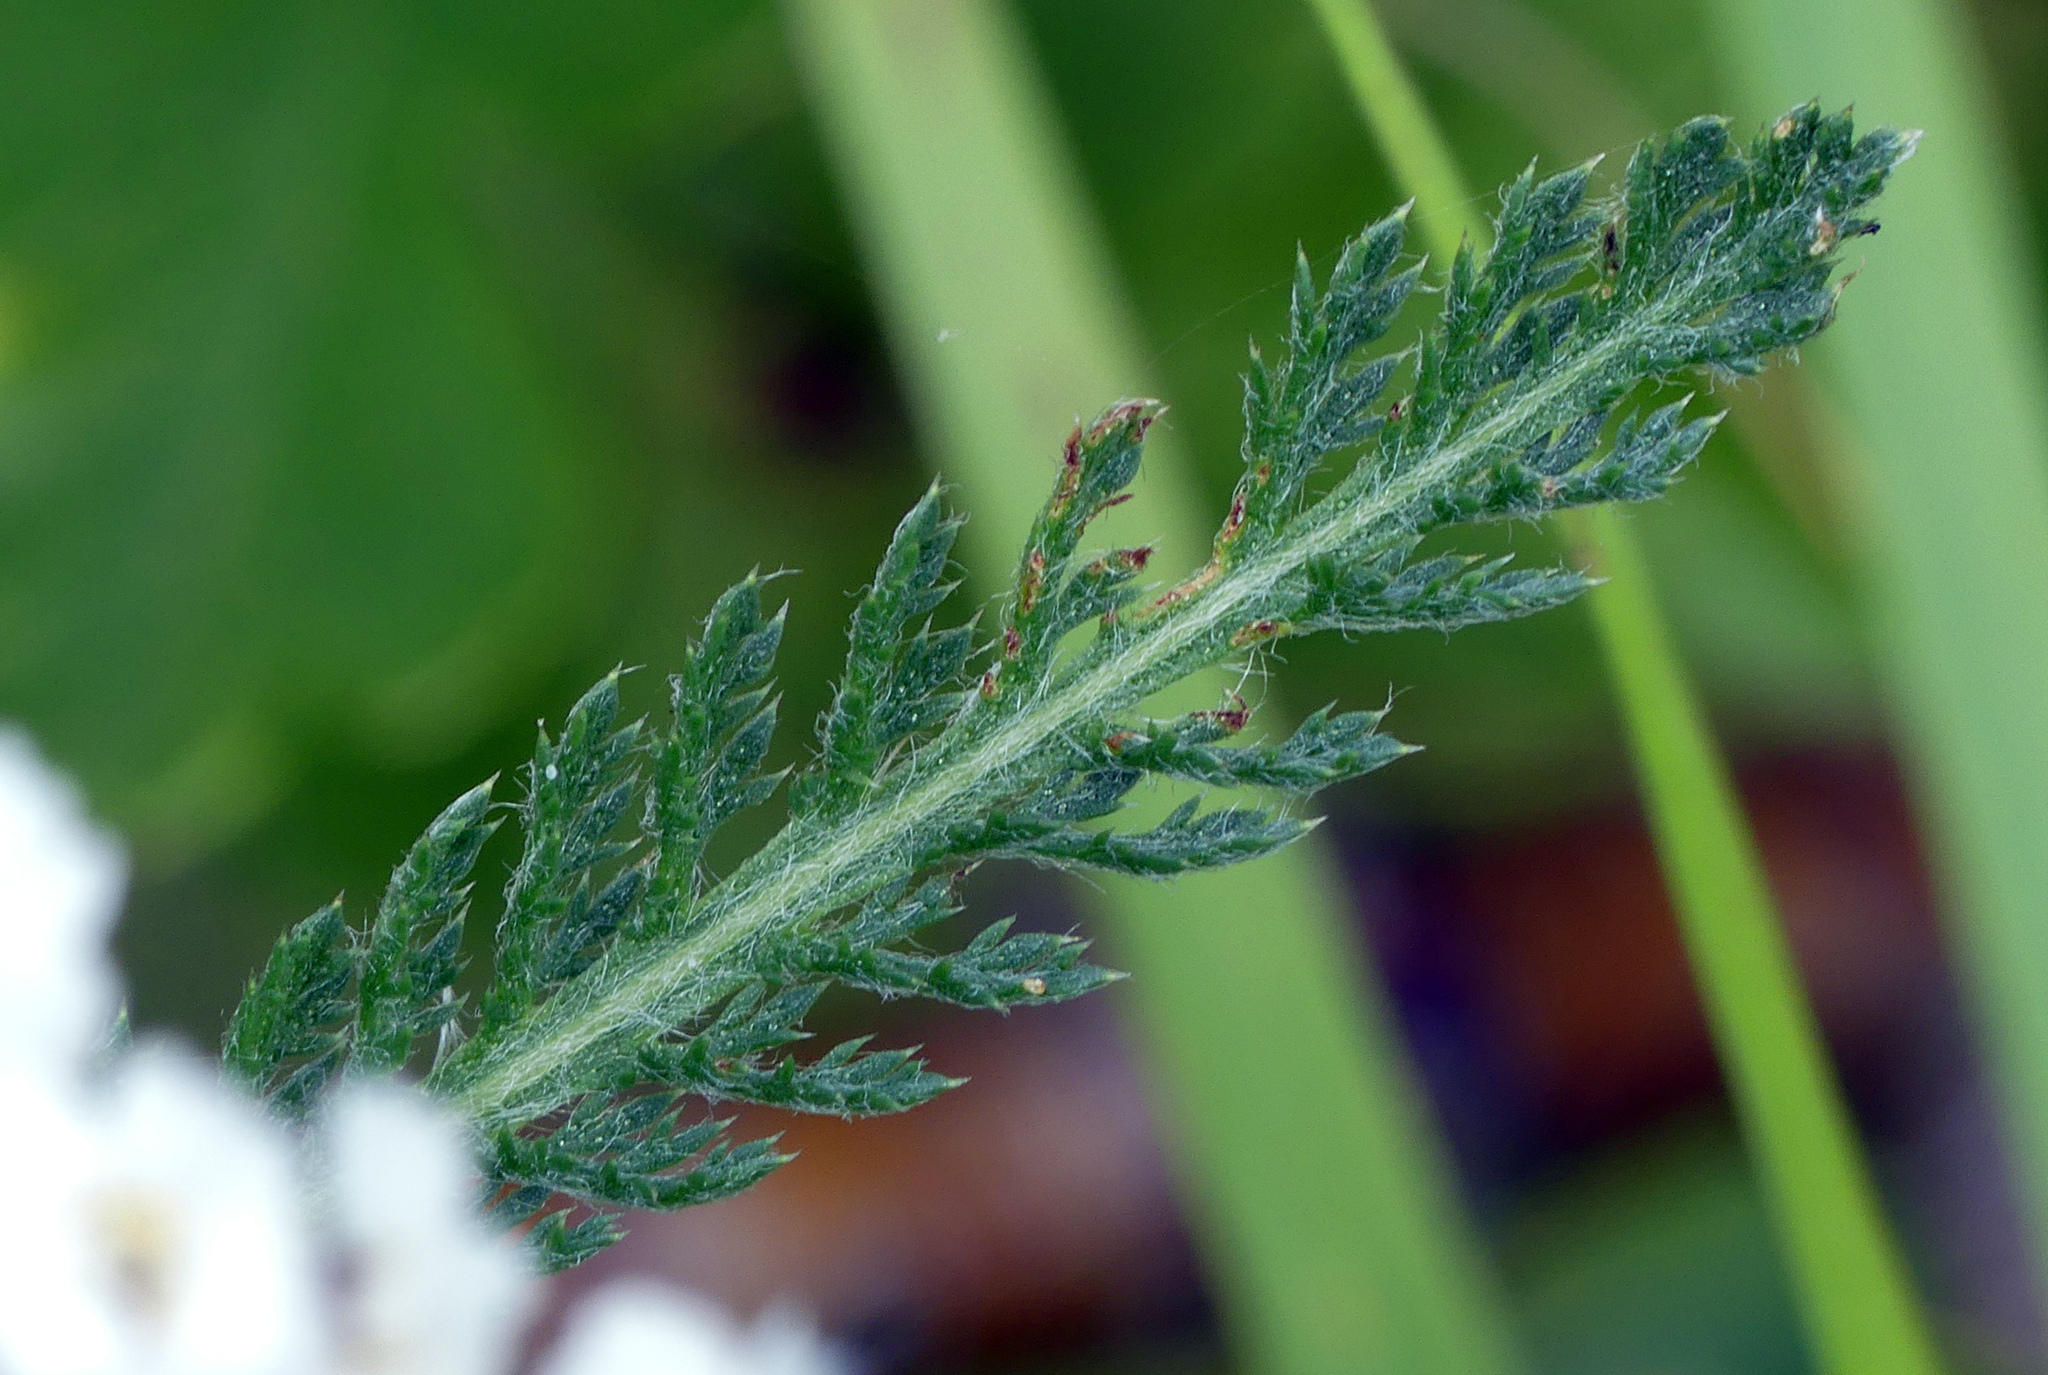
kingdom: Plantae
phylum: Tracheophyta
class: Magnoliopsida
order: Asterales
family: Asteraceae
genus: Achillea
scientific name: Achillea millefolium
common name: Yarrow
